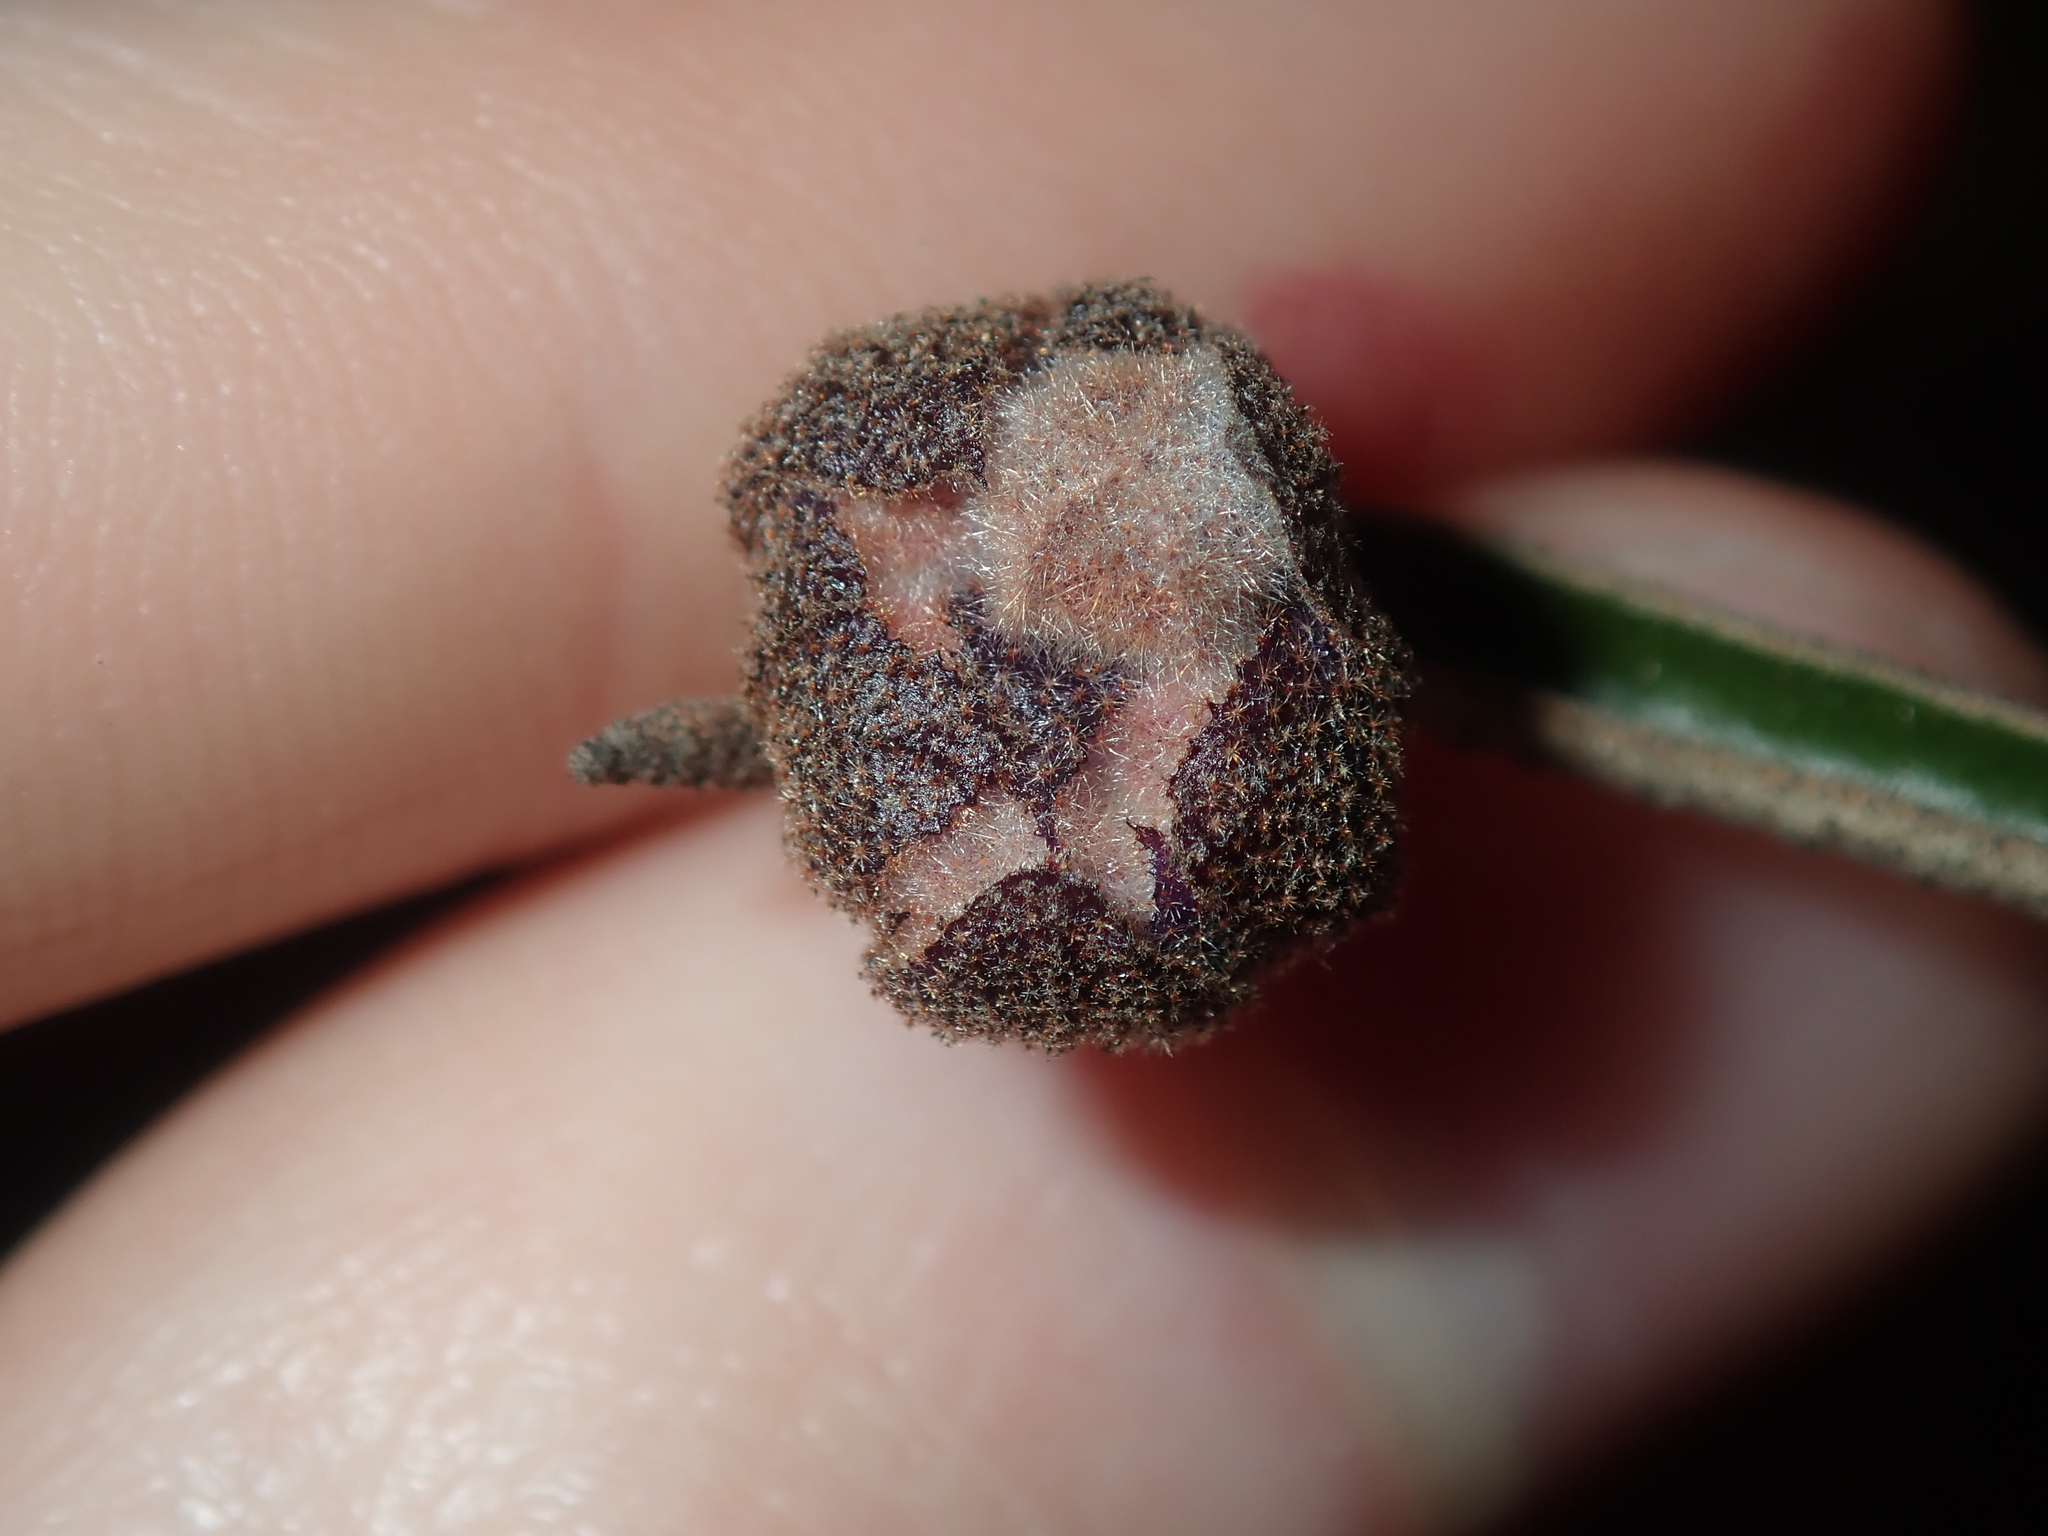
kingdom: Plantae
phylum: Tracheophyta
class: Magnoliopsida
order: Malvales
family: Malvaceae
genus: Seringia
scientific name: Seringia velutina
